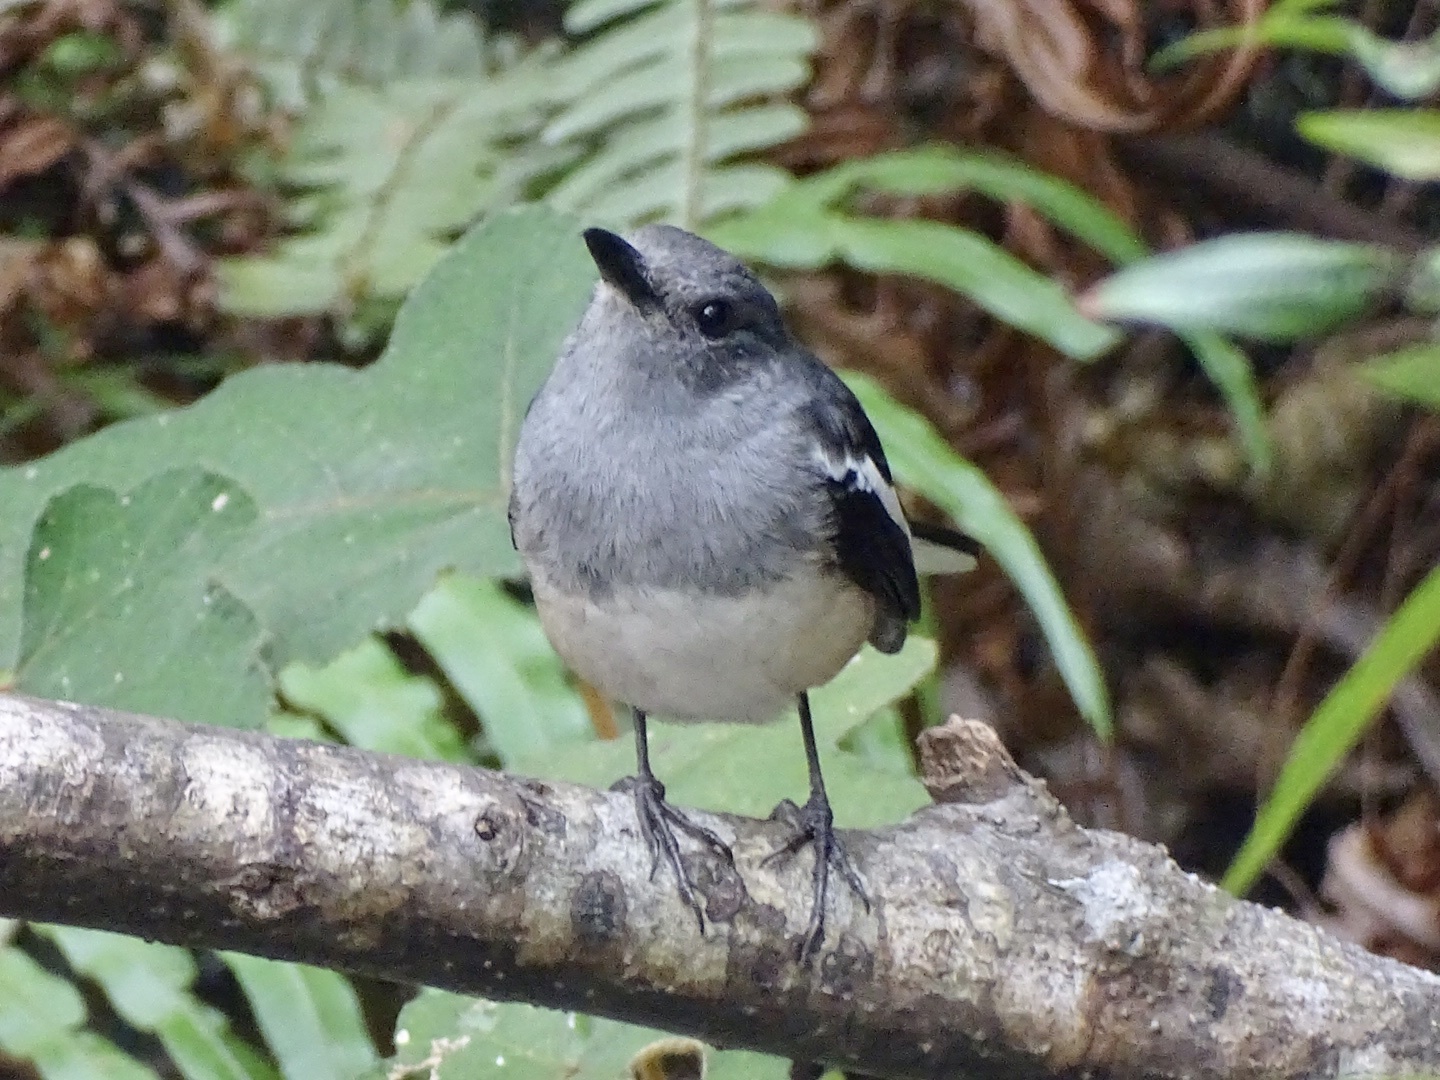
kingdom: Animalia
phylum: Chordata
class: Aves
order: Passeriformes
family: Muscicapidae
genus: Copsychus
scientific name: Copsychus saularis
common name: Oriental magpie-robin
